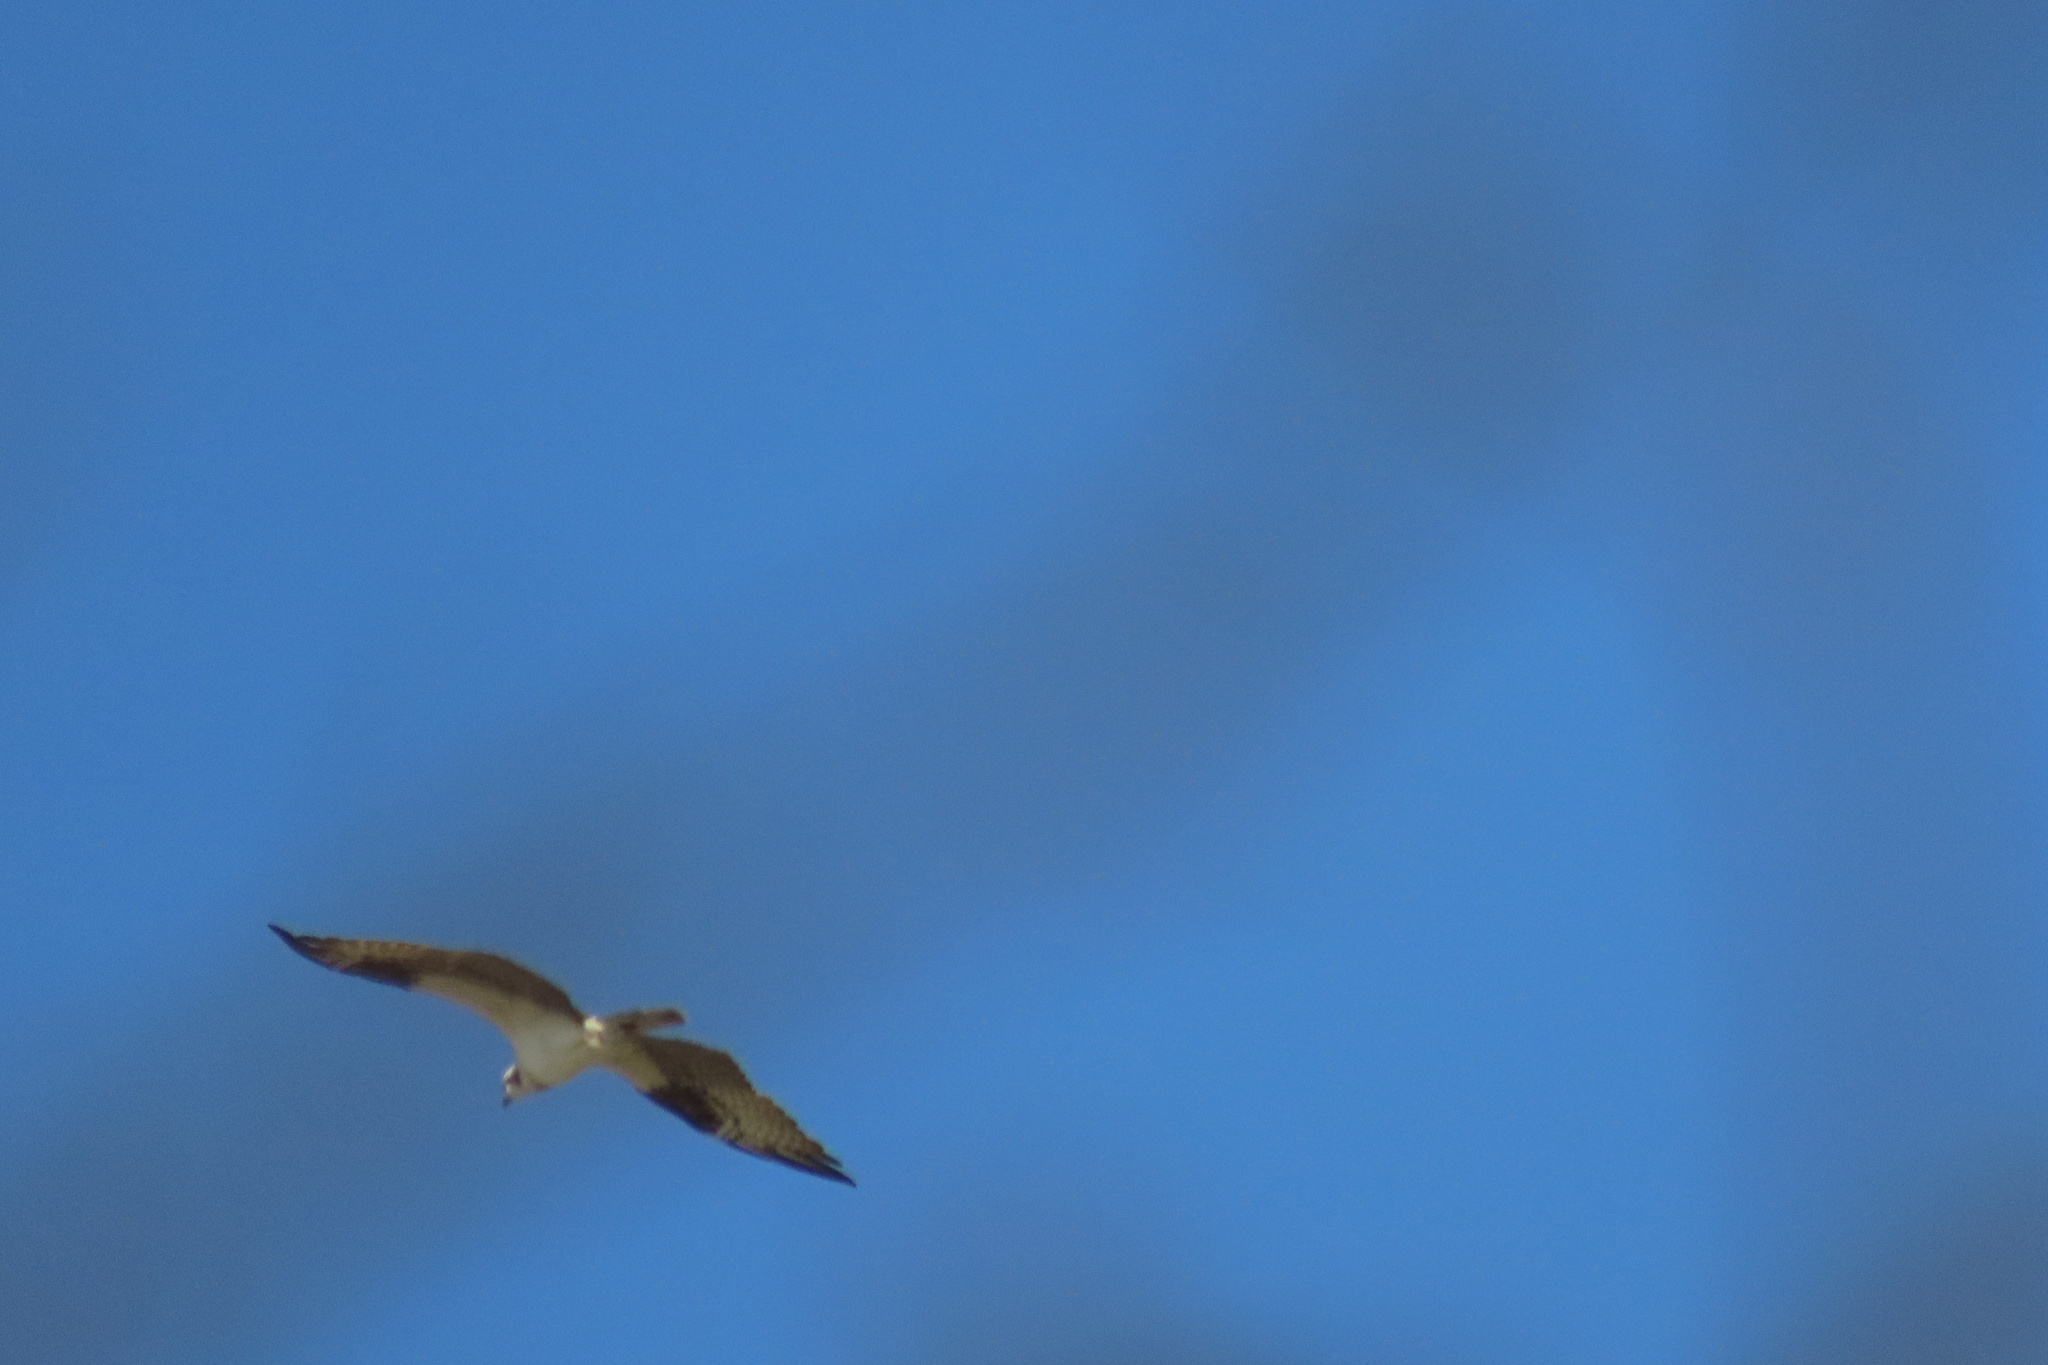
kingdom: Animalia
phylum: Chordata
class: Aves
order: Accipitriformes
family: Pandionidae
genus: Pandion
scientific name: Pandion haliaetus
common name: Osprey
